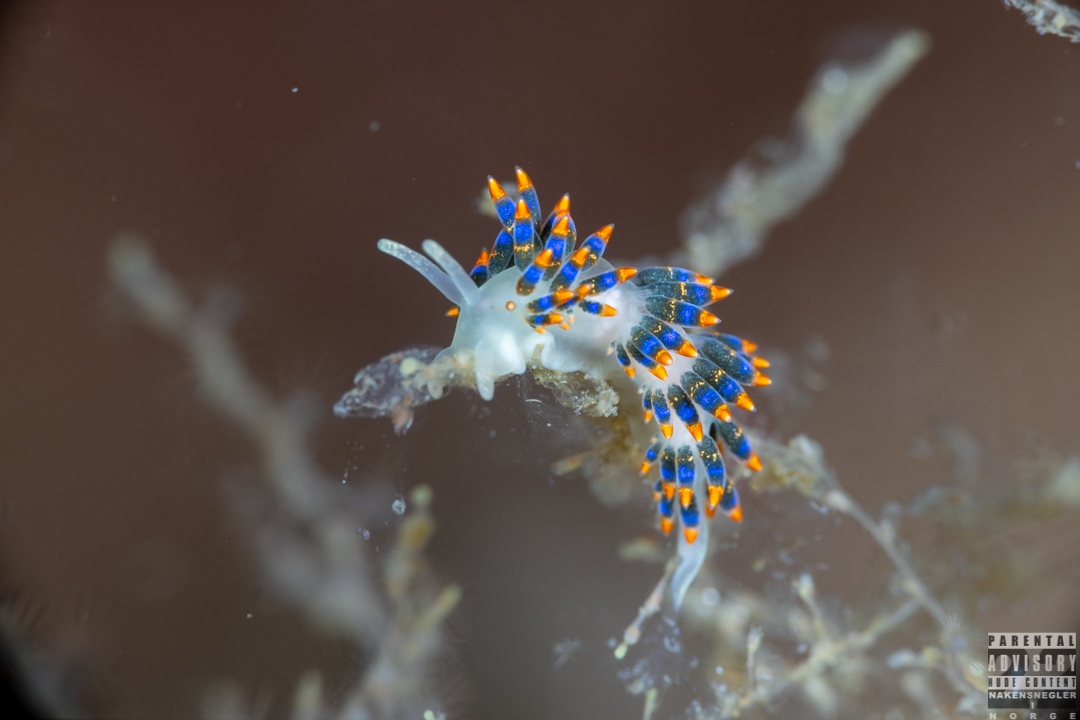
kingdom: Animalia
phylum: Mollusca
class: Gastropoda
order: Nudibranchia
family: Trinchesiidae
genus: Trinchesia
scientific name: Trinchesia cuanensis
